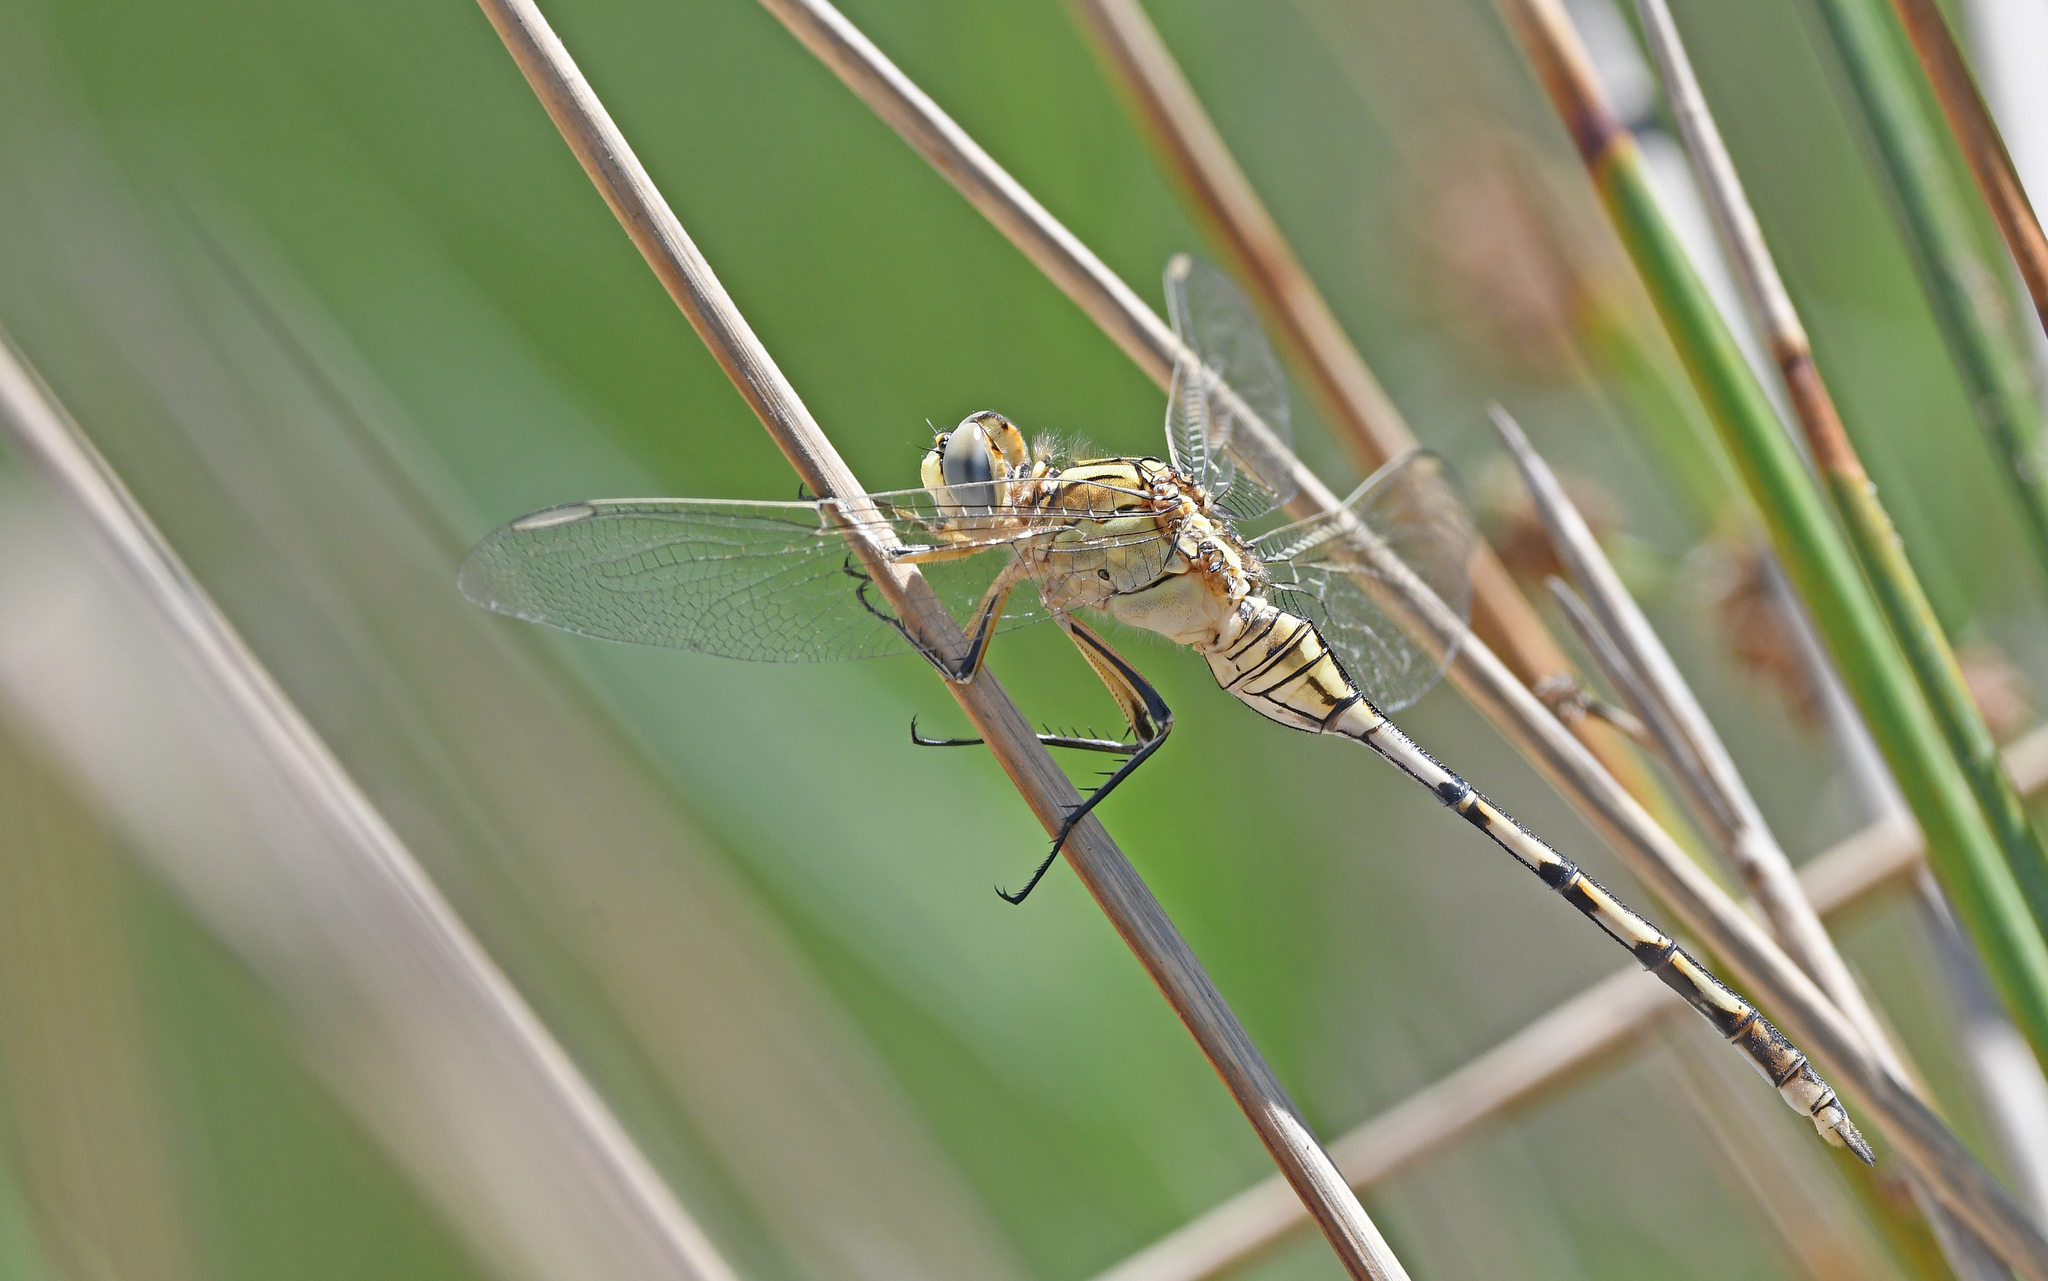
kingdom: Animalia
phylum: Arthropoda
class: Insecta
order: Odonata
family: Libellulidae
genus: Orthetrum
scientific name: Orthetrum trinacria
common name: Long skimmer
